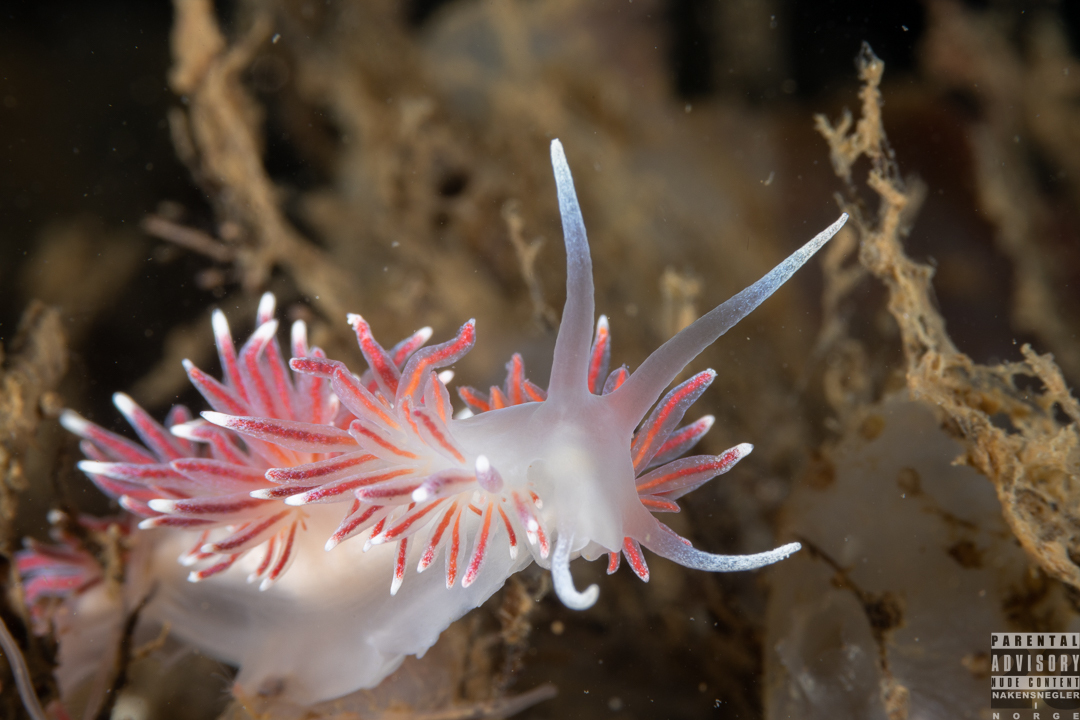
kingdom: Animalia
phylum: Mollusca
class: Gastropoda
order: Nudibranchia
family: Flabellinidae
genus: Carronella
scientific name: Carronella pellucida
